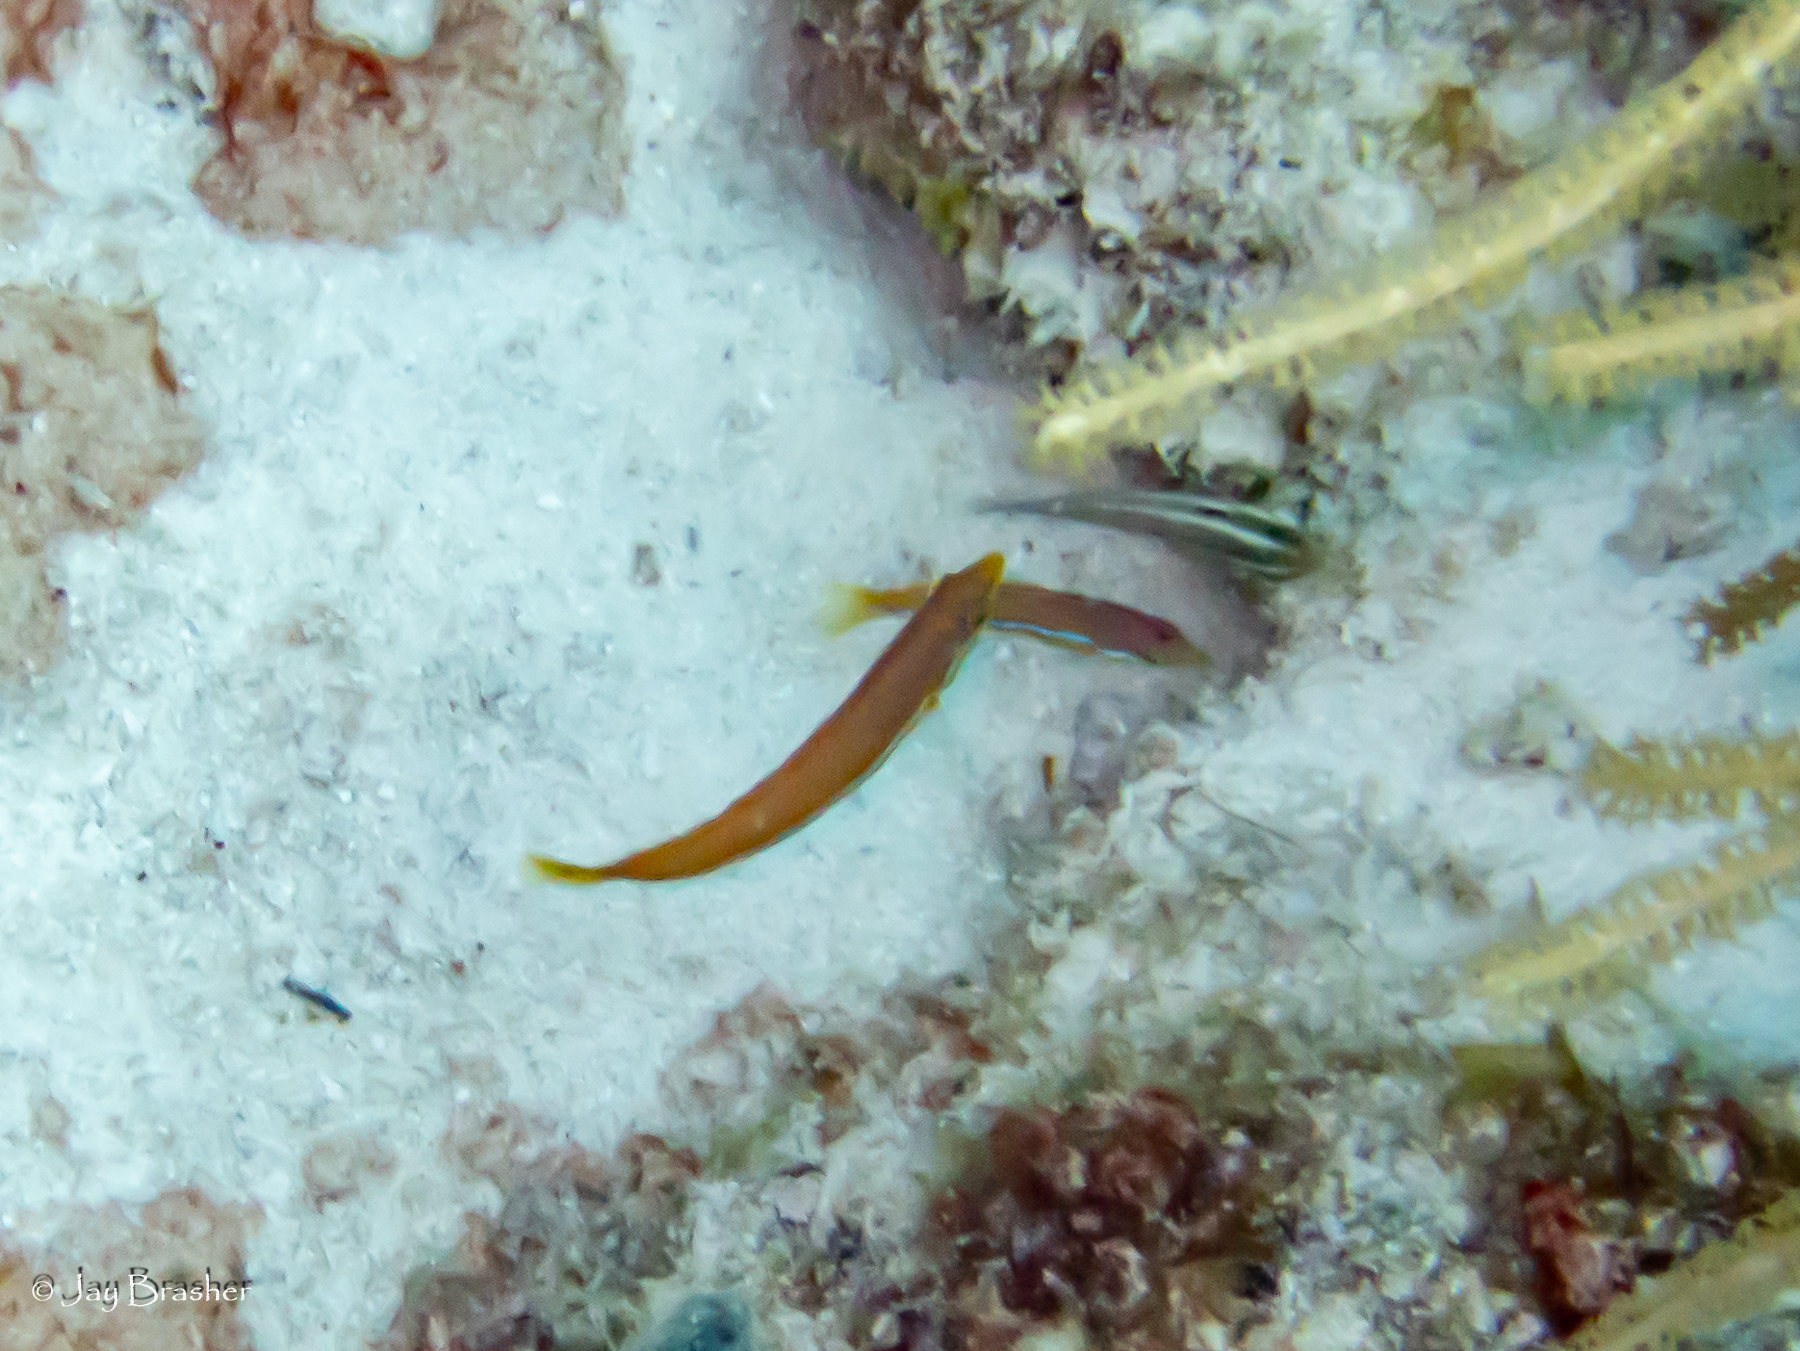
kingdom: Animalia
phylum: Chordata
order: Perciformes
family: Labridae
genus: Halichoeres
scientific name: Halichoeres garnoti
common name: Yellowhead wrasse
